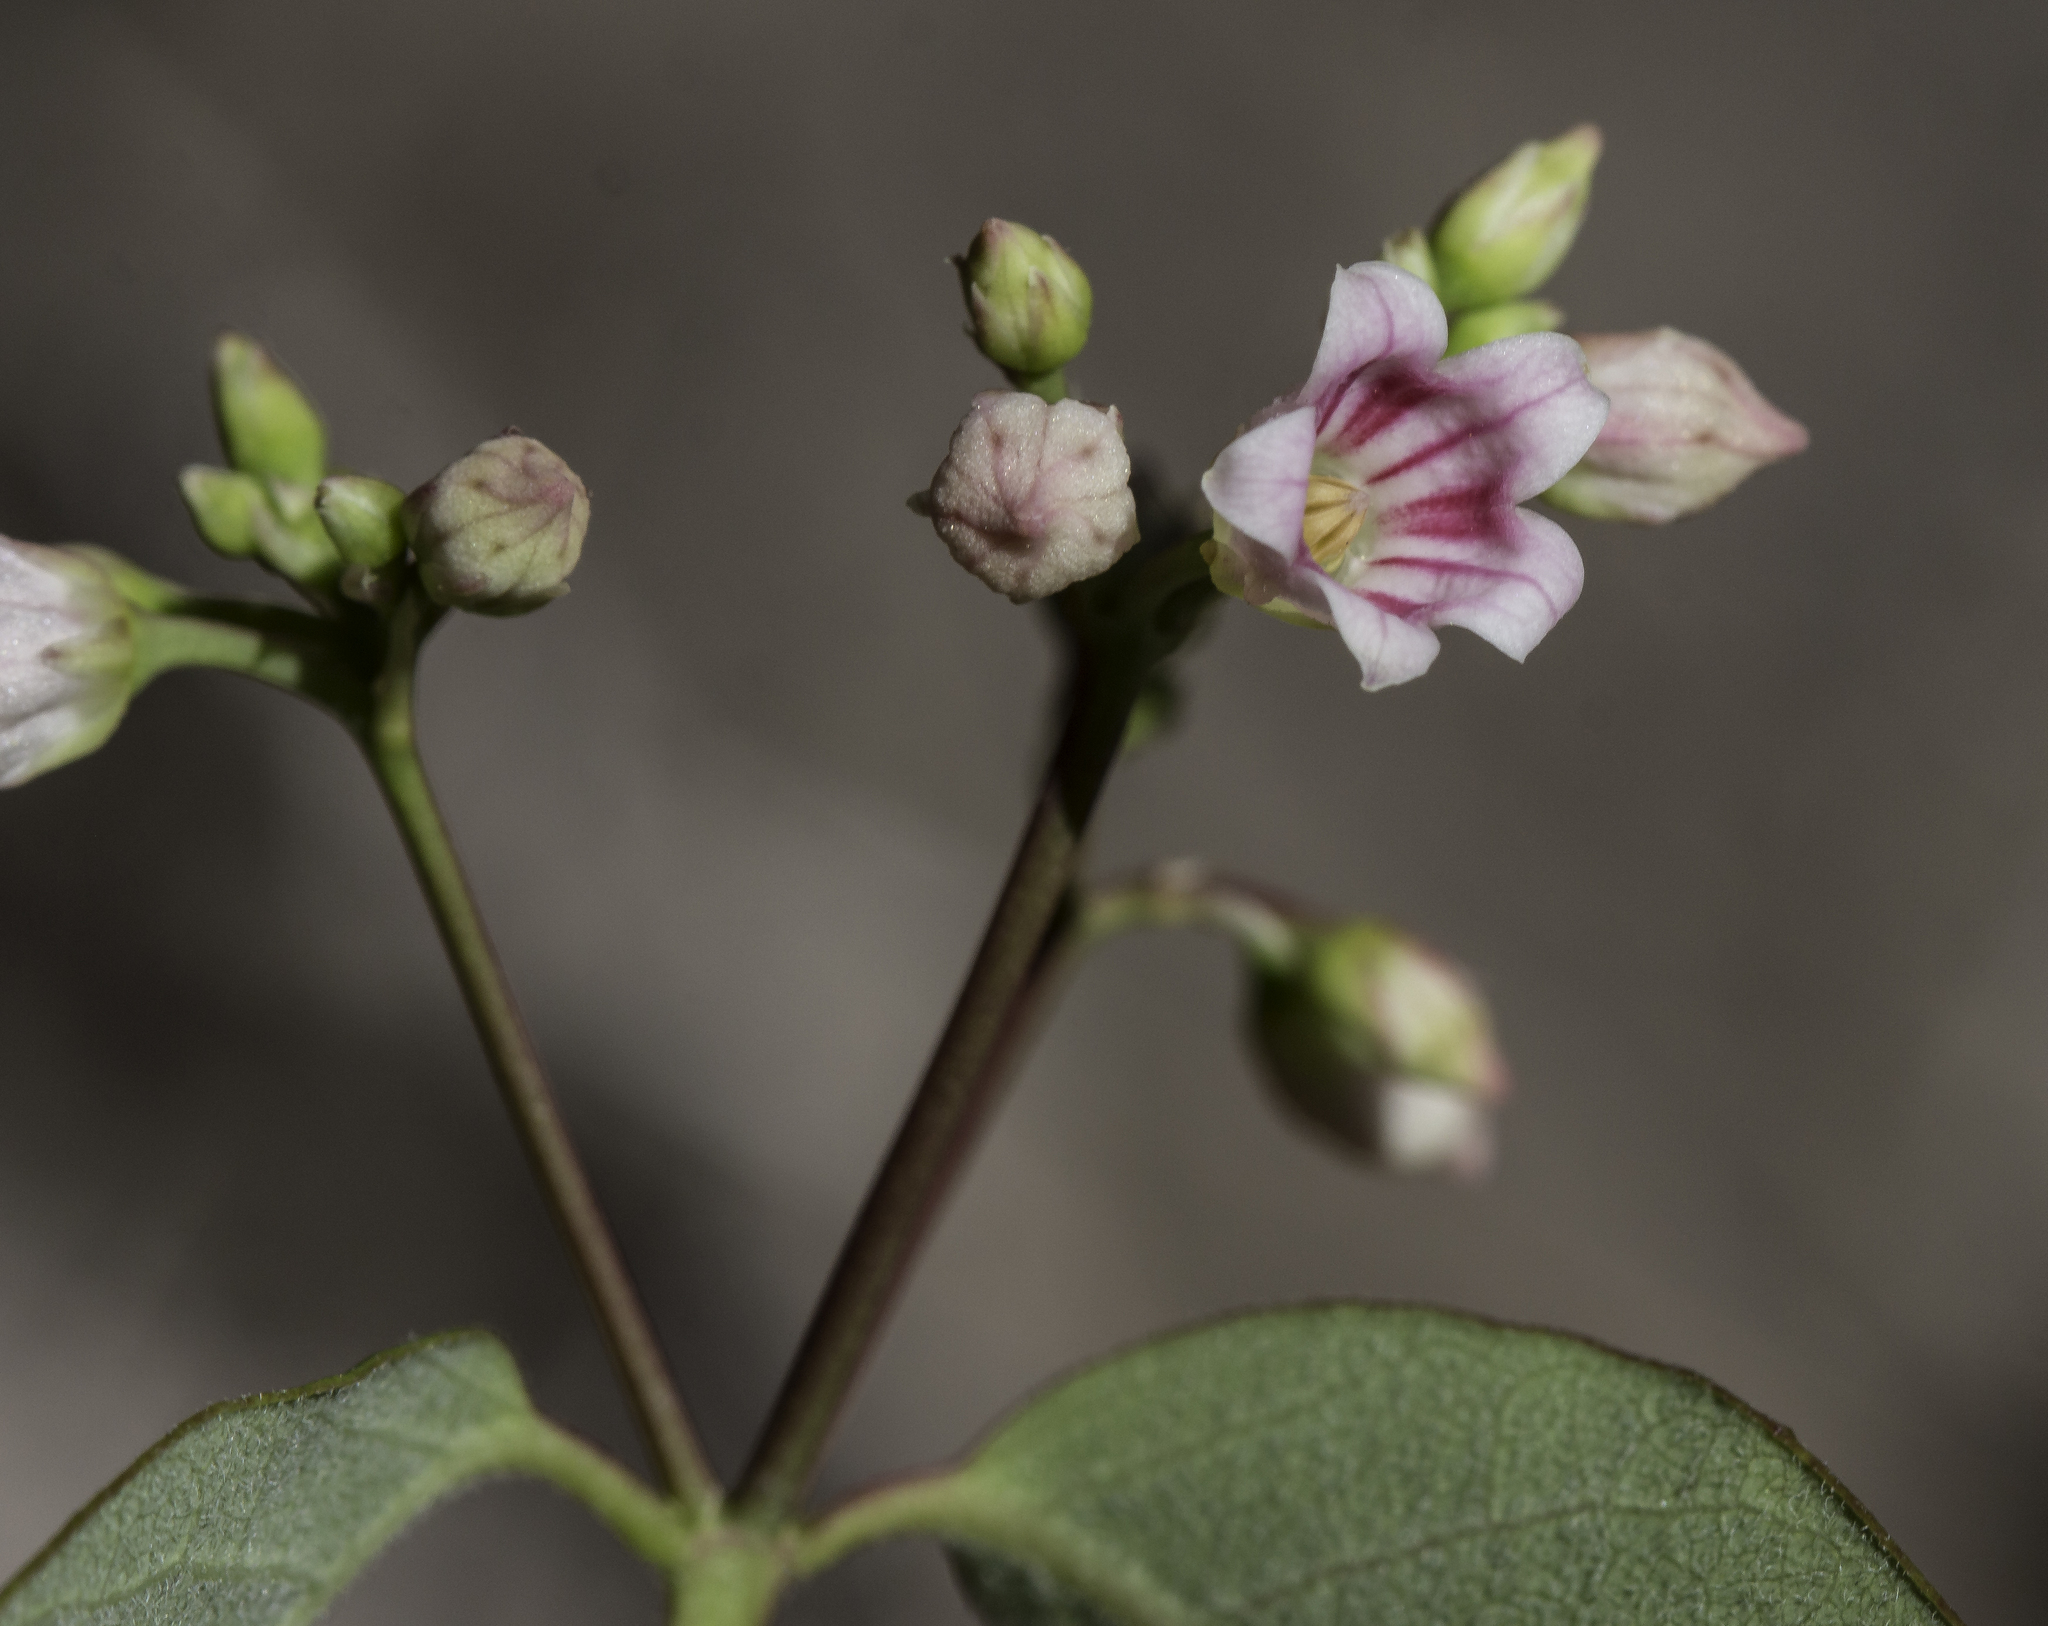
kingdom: Plantae
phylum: Tracheophyta
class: Magnoliopsida
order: Gentianales
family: Apocynaceae
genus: Apocynum
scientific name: Apocynum androsaemifolium
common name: Spreading dogbane
